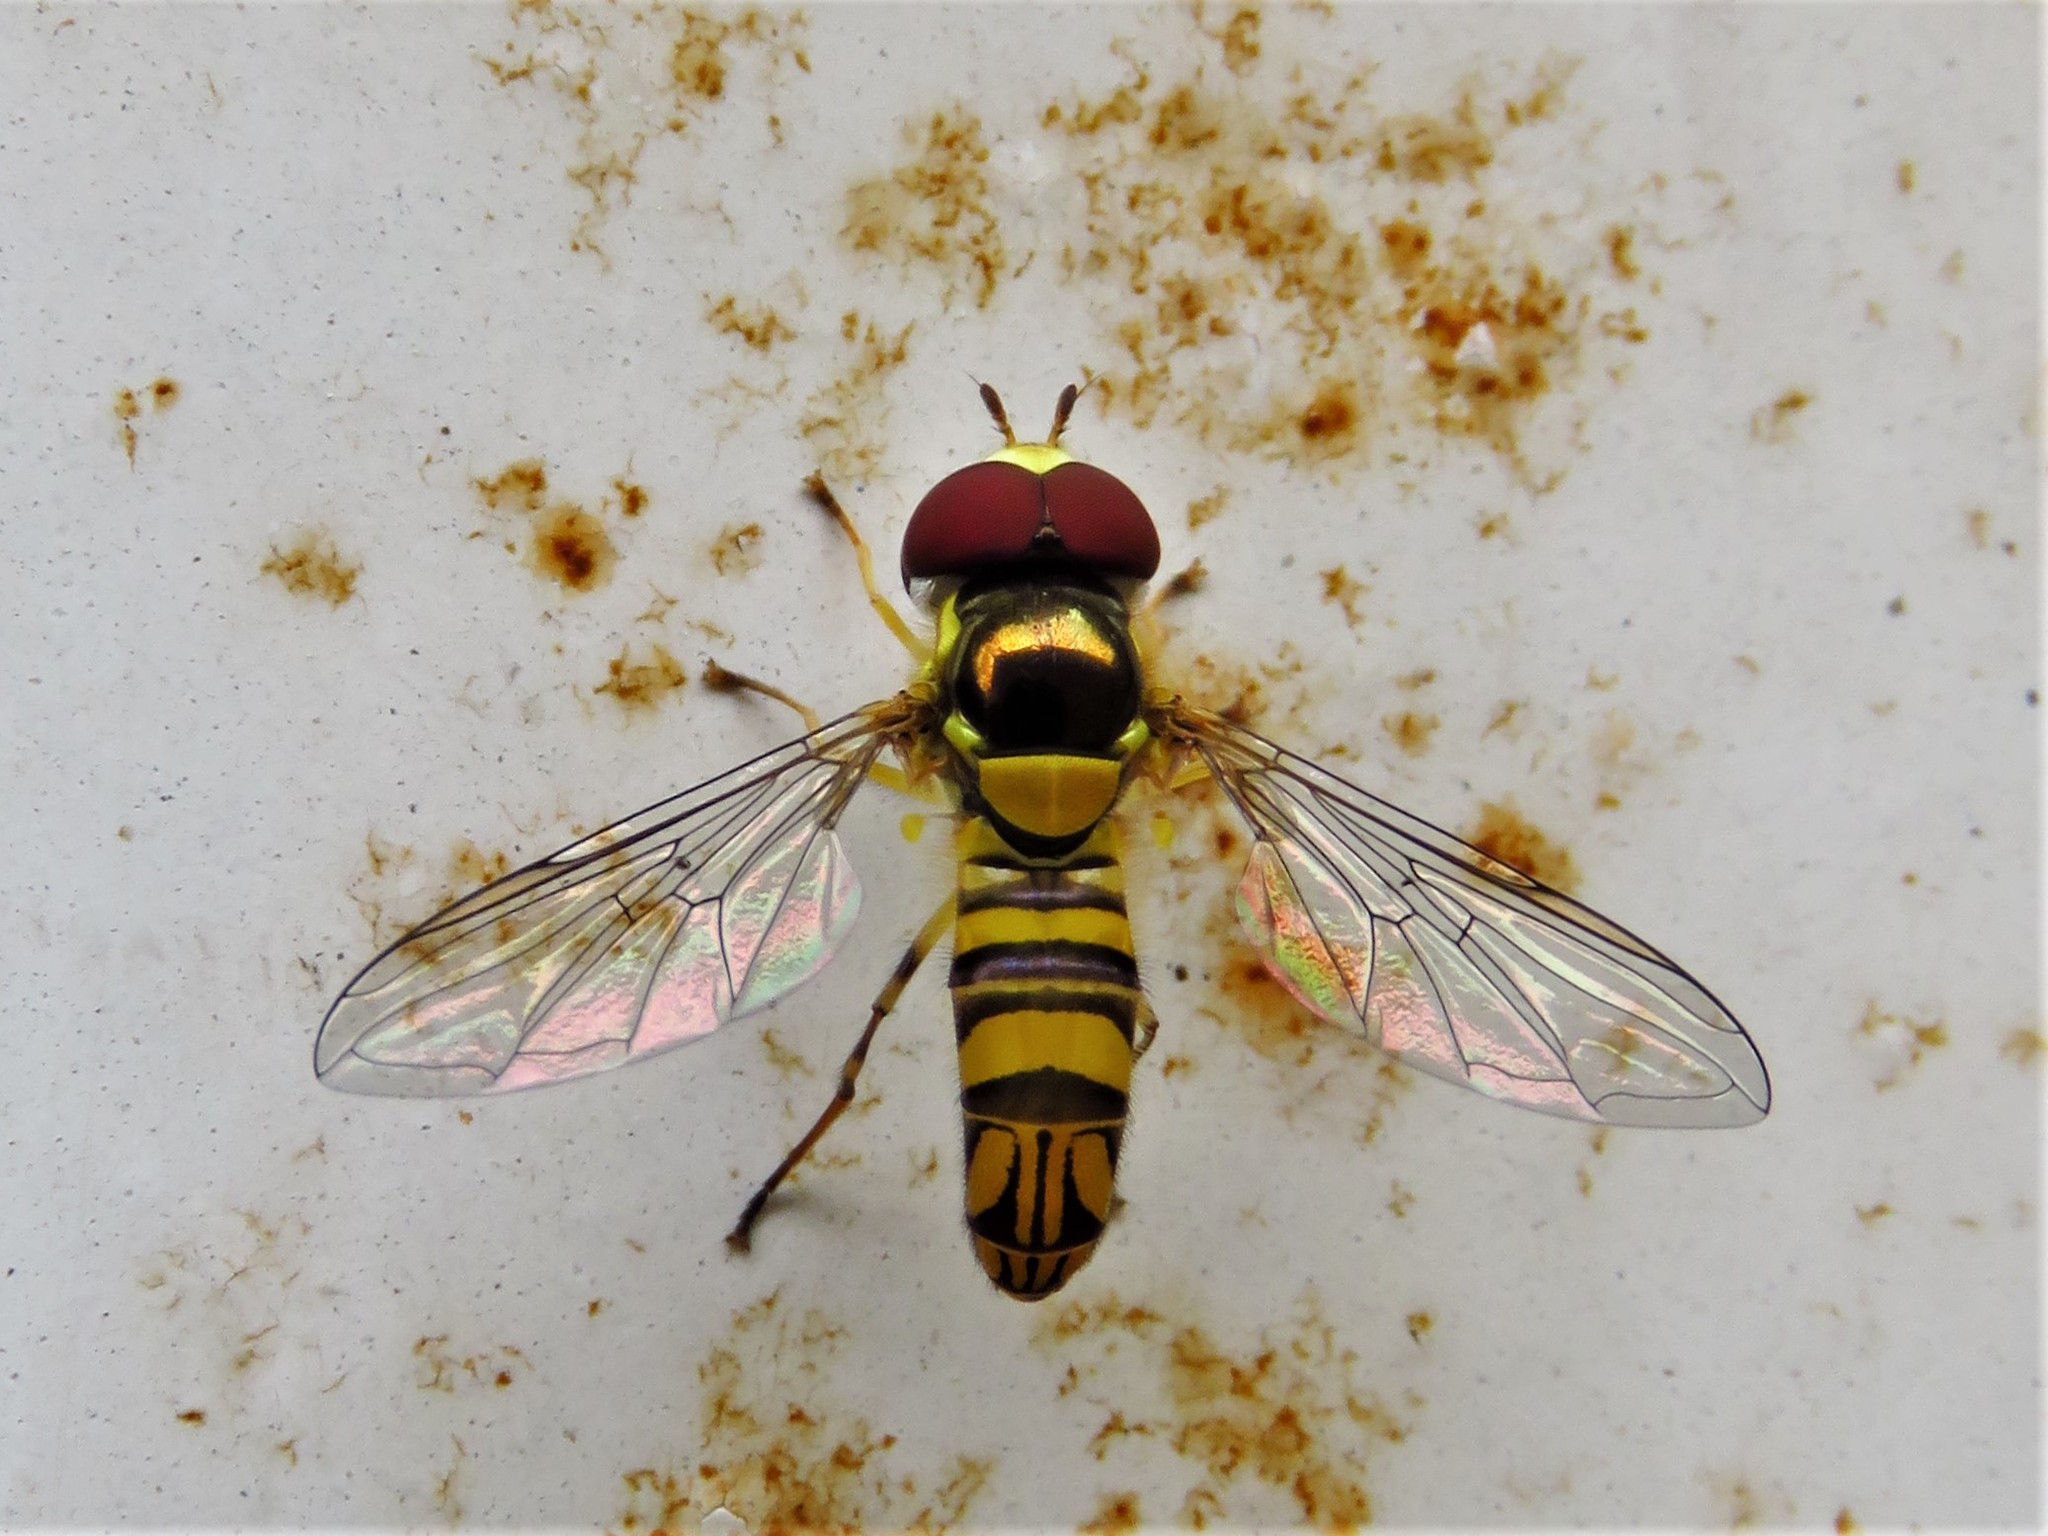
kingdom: Animalia
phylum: Arthropoda
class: Insecta
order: Diptera
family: Syrphidae
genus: Allograpta
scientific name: Allograpta obliqua
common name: Common oblique syrphid
